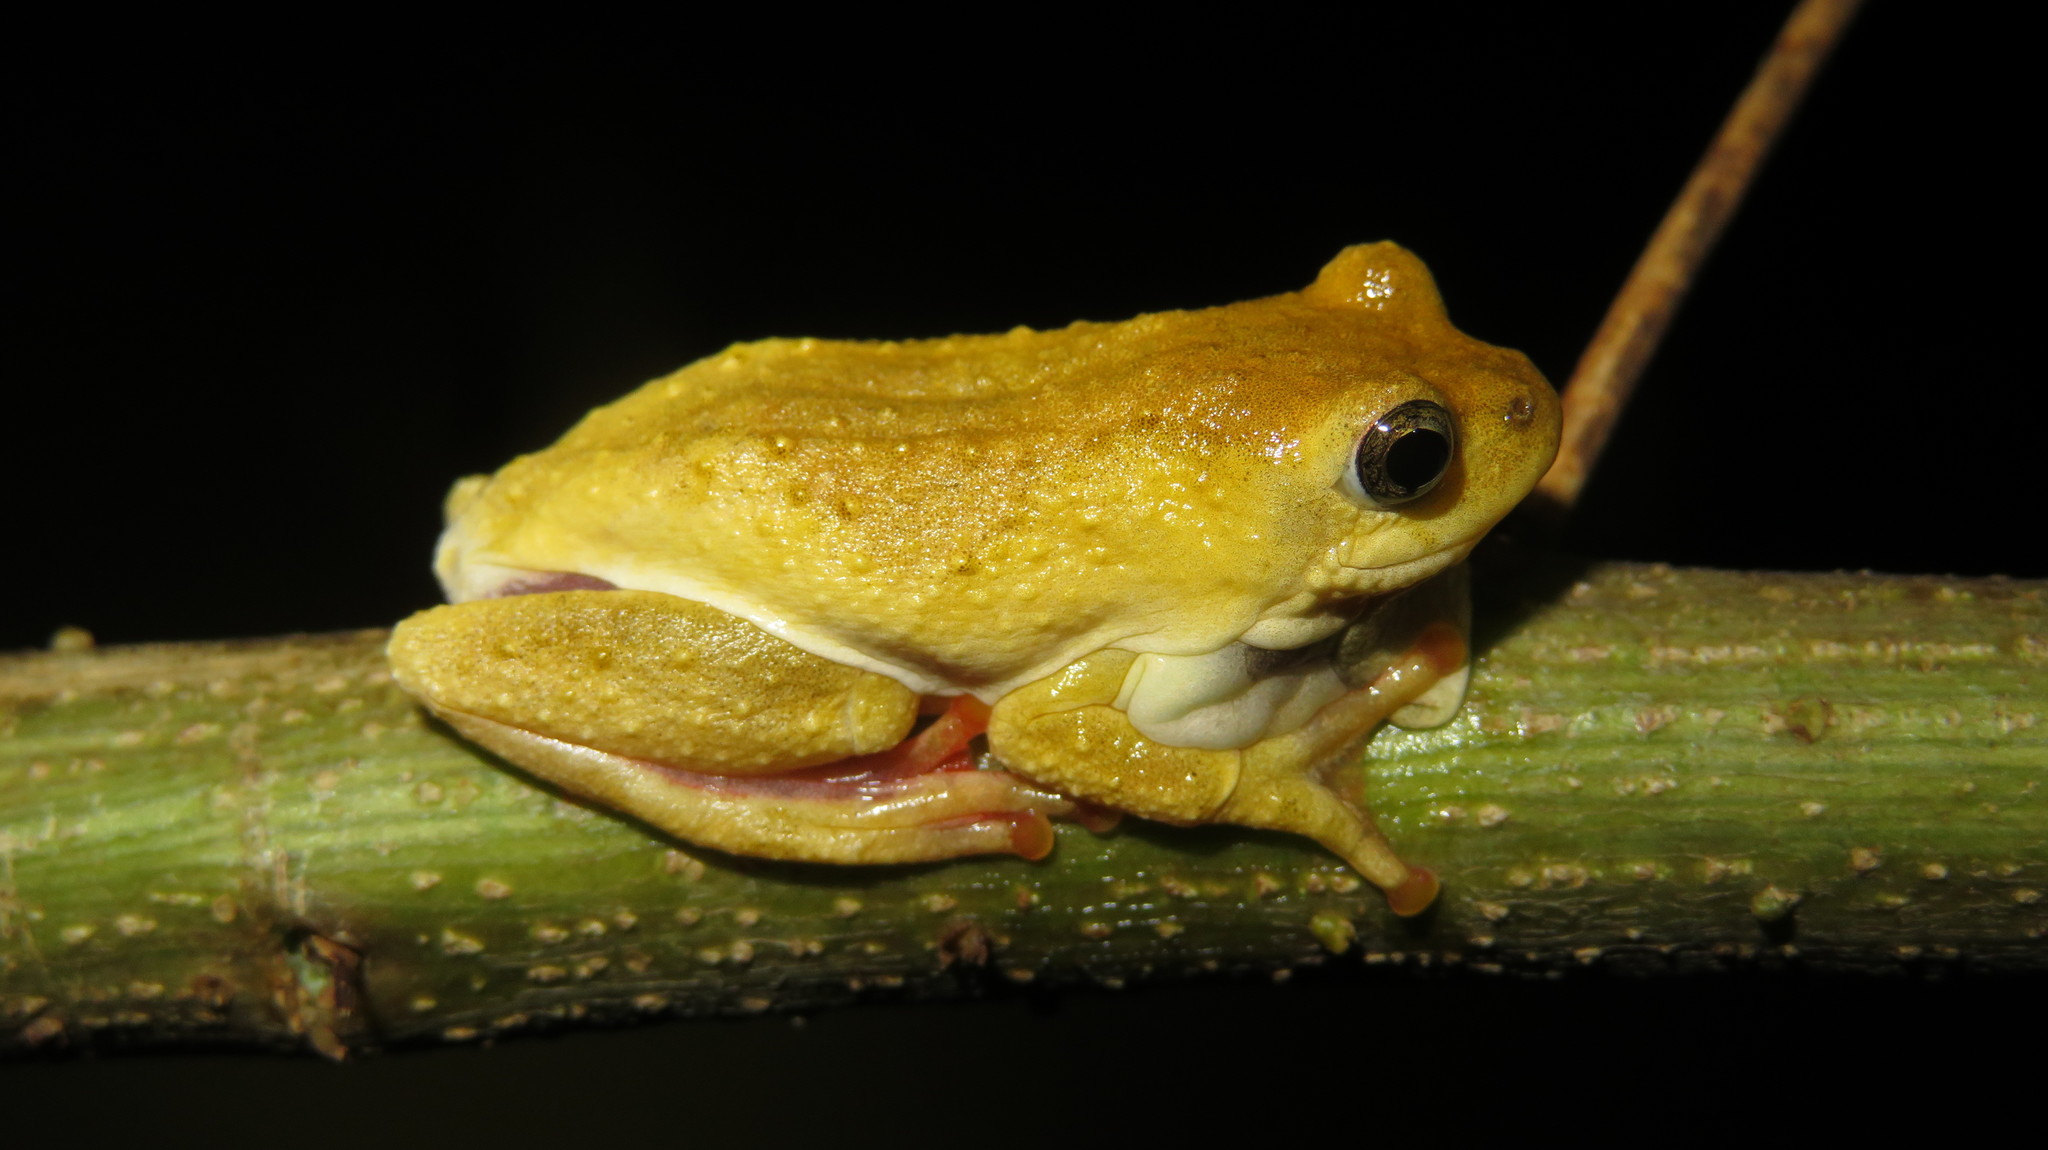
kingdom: Animalia
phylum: Chordata
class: Amphibia
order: Anura
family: Hyperoliidae
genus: Hyperolius
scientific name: Hyperolius glandicolor
